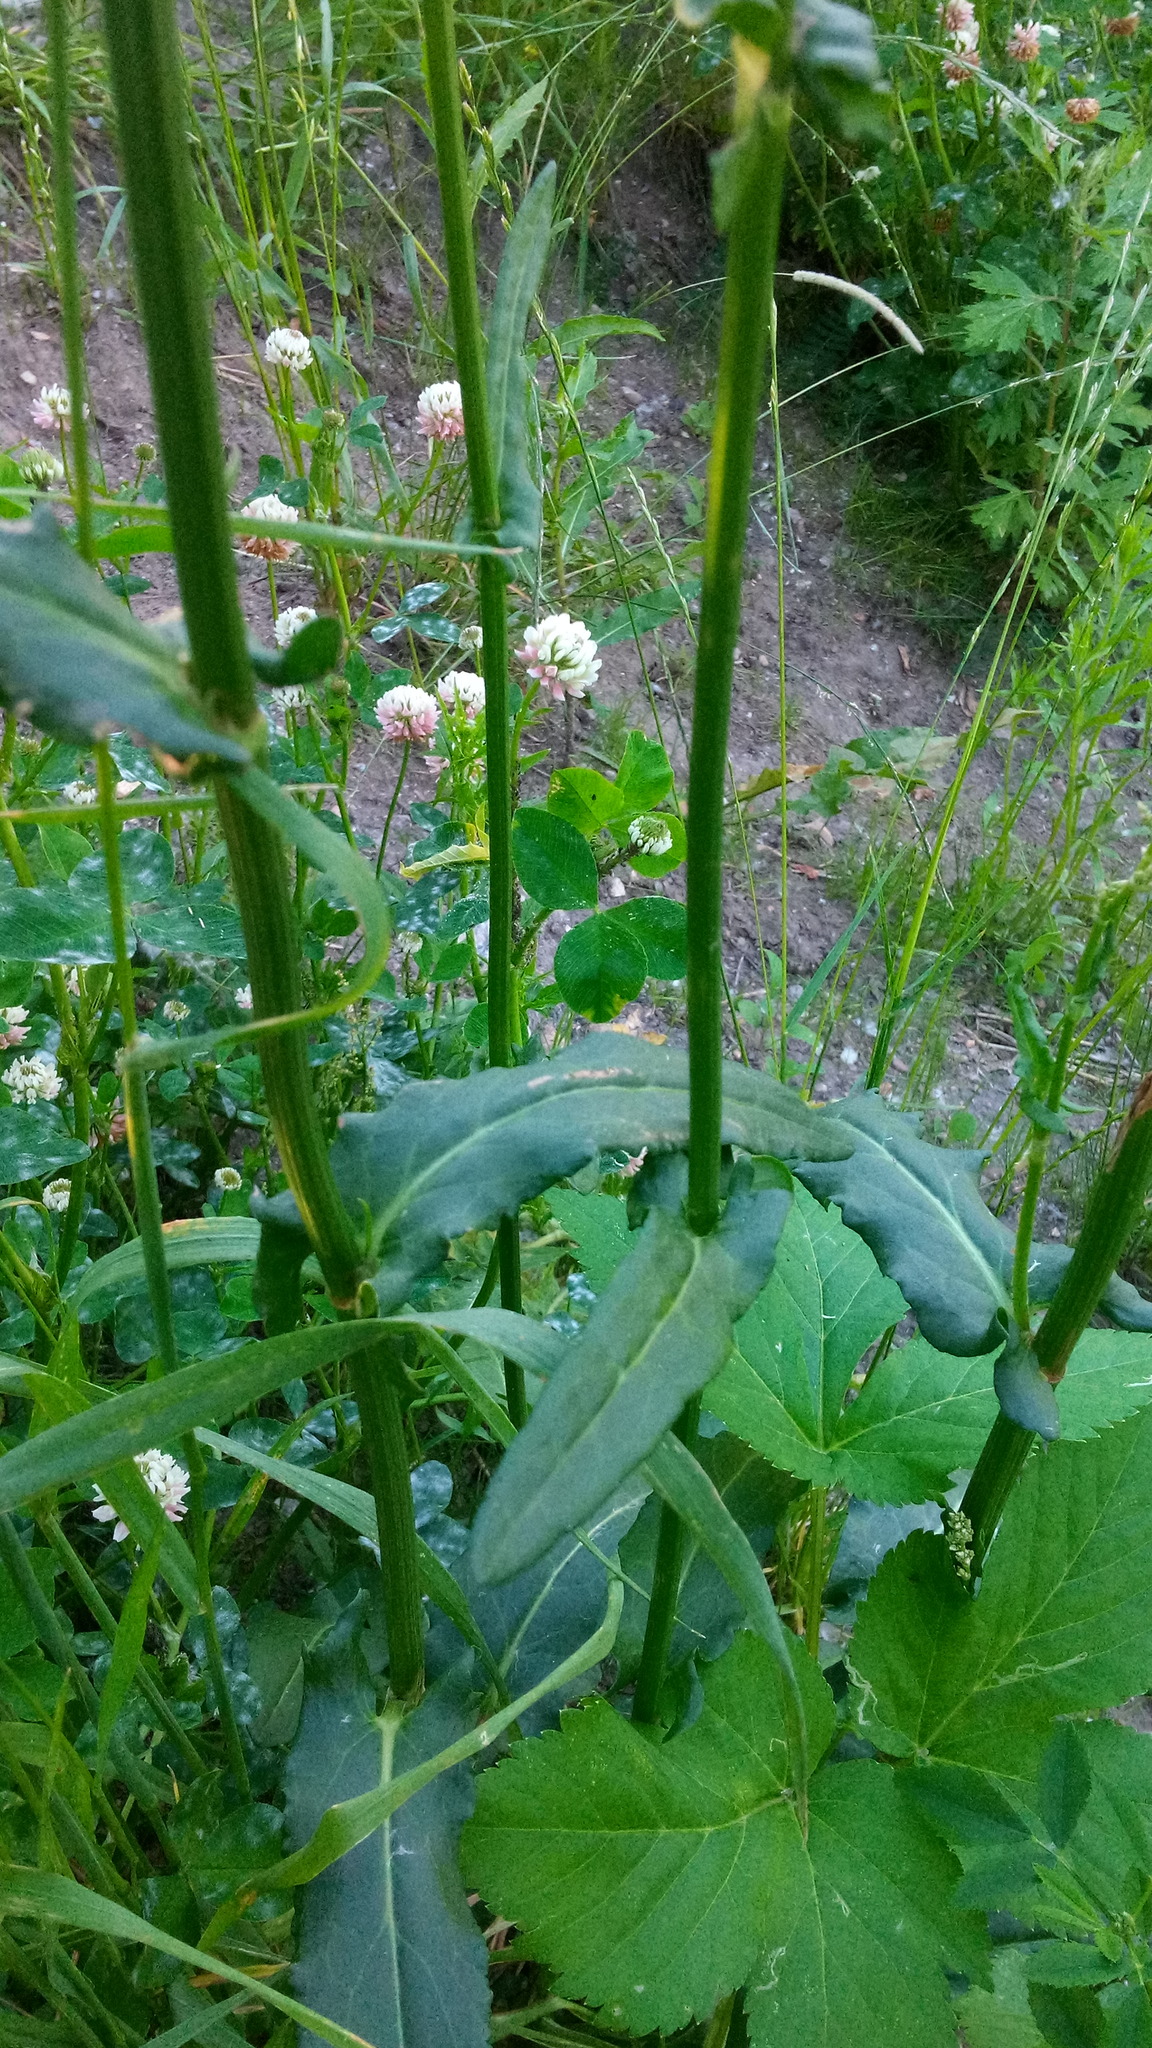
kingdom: Plantae
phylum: Tracheophyta
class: Magnoliopsida
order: Caryophyllales
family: Polygonaceae
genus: Rumex
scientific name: Rumex thyrsiflorus
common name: Garden sorrel
